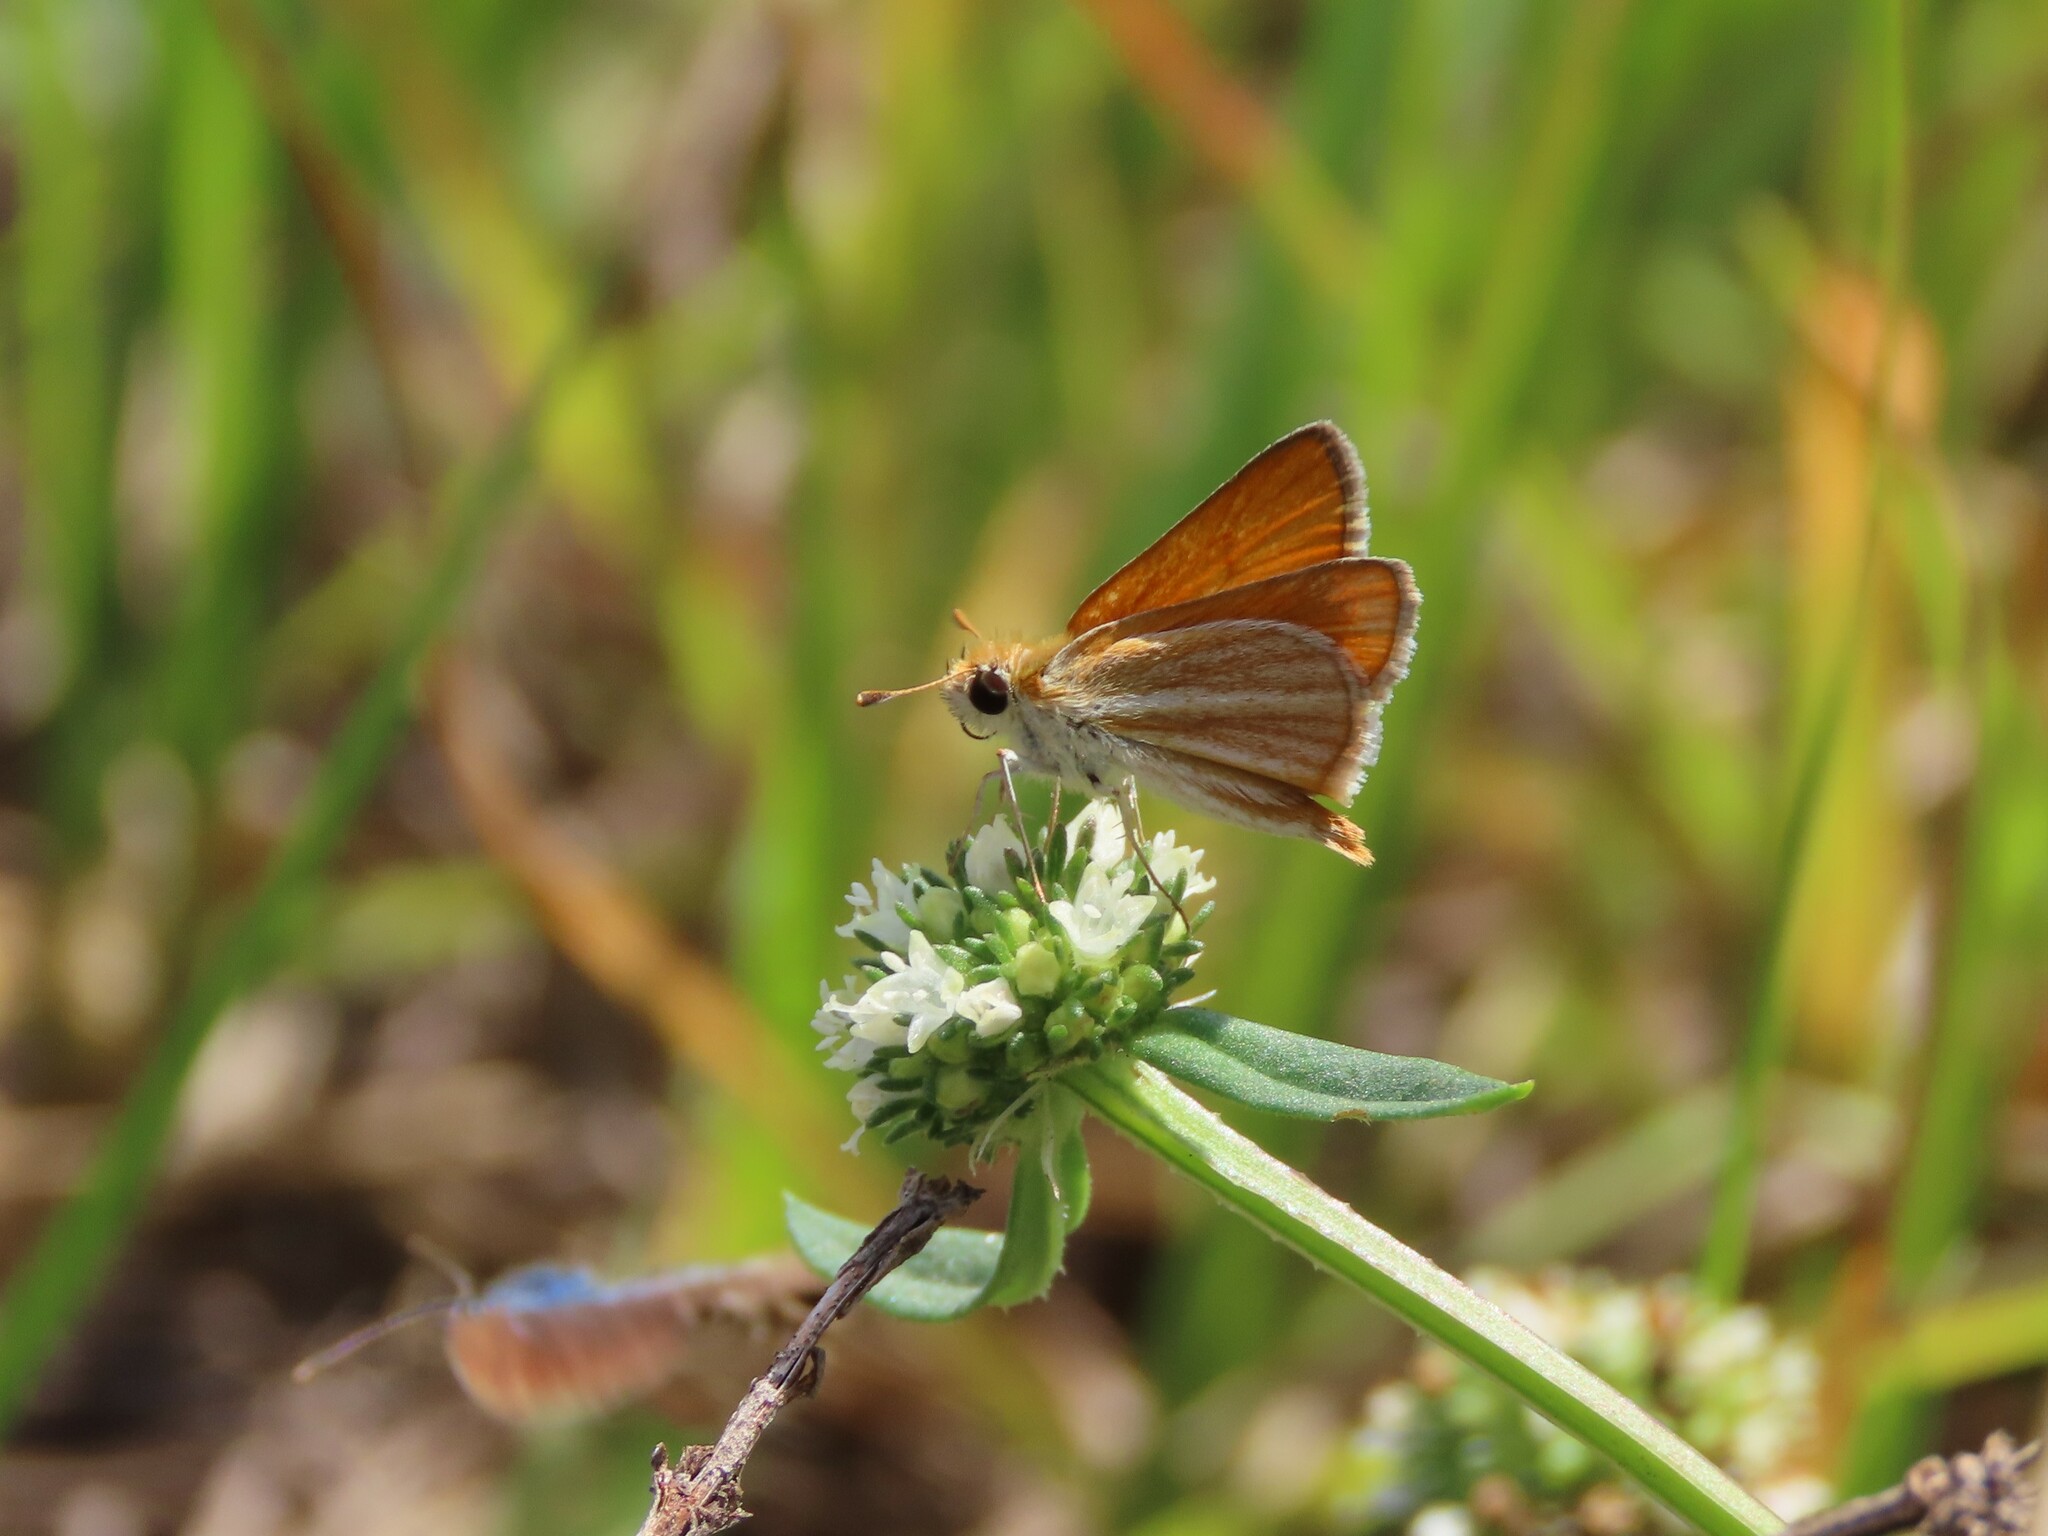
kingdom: Animalia
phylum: Arthropoda
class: Insecta
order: Lepidoptera
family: Hesperiidae
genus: Copaeodes
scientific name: Copaeodes minima
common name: Southern skipperling
